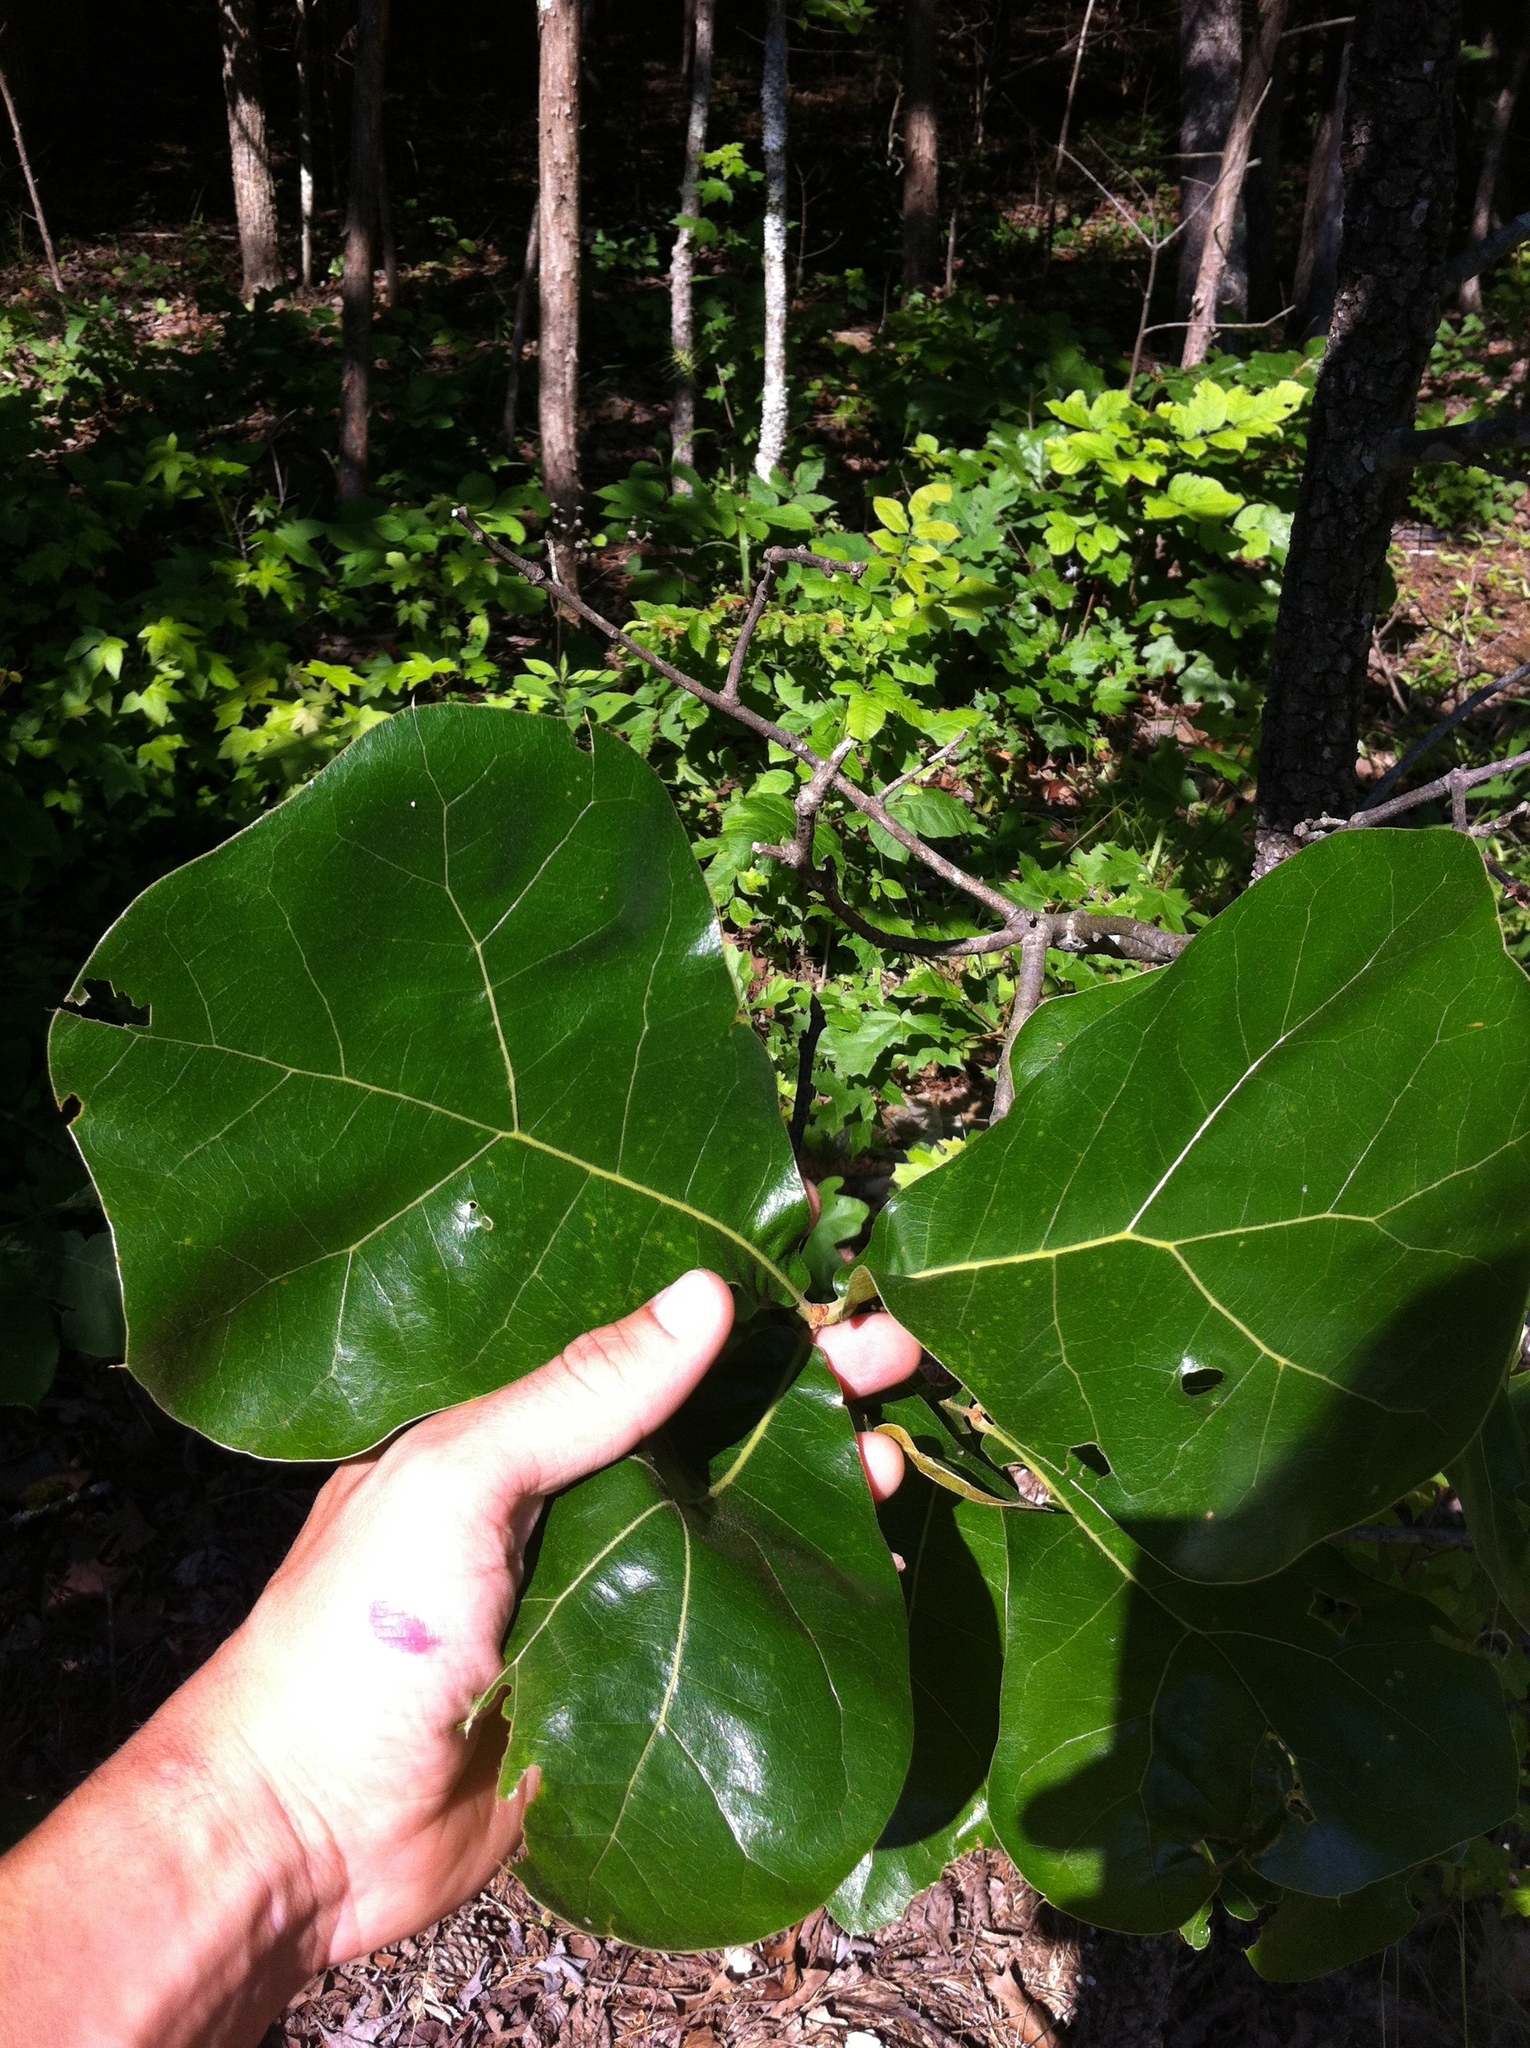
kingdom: Plantae
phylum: Tracheophyta
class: Magnoliopsida
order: Fagales
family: Fagaceae
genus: Quercus
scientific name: Quercus marilandica
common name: Blackjack oak
